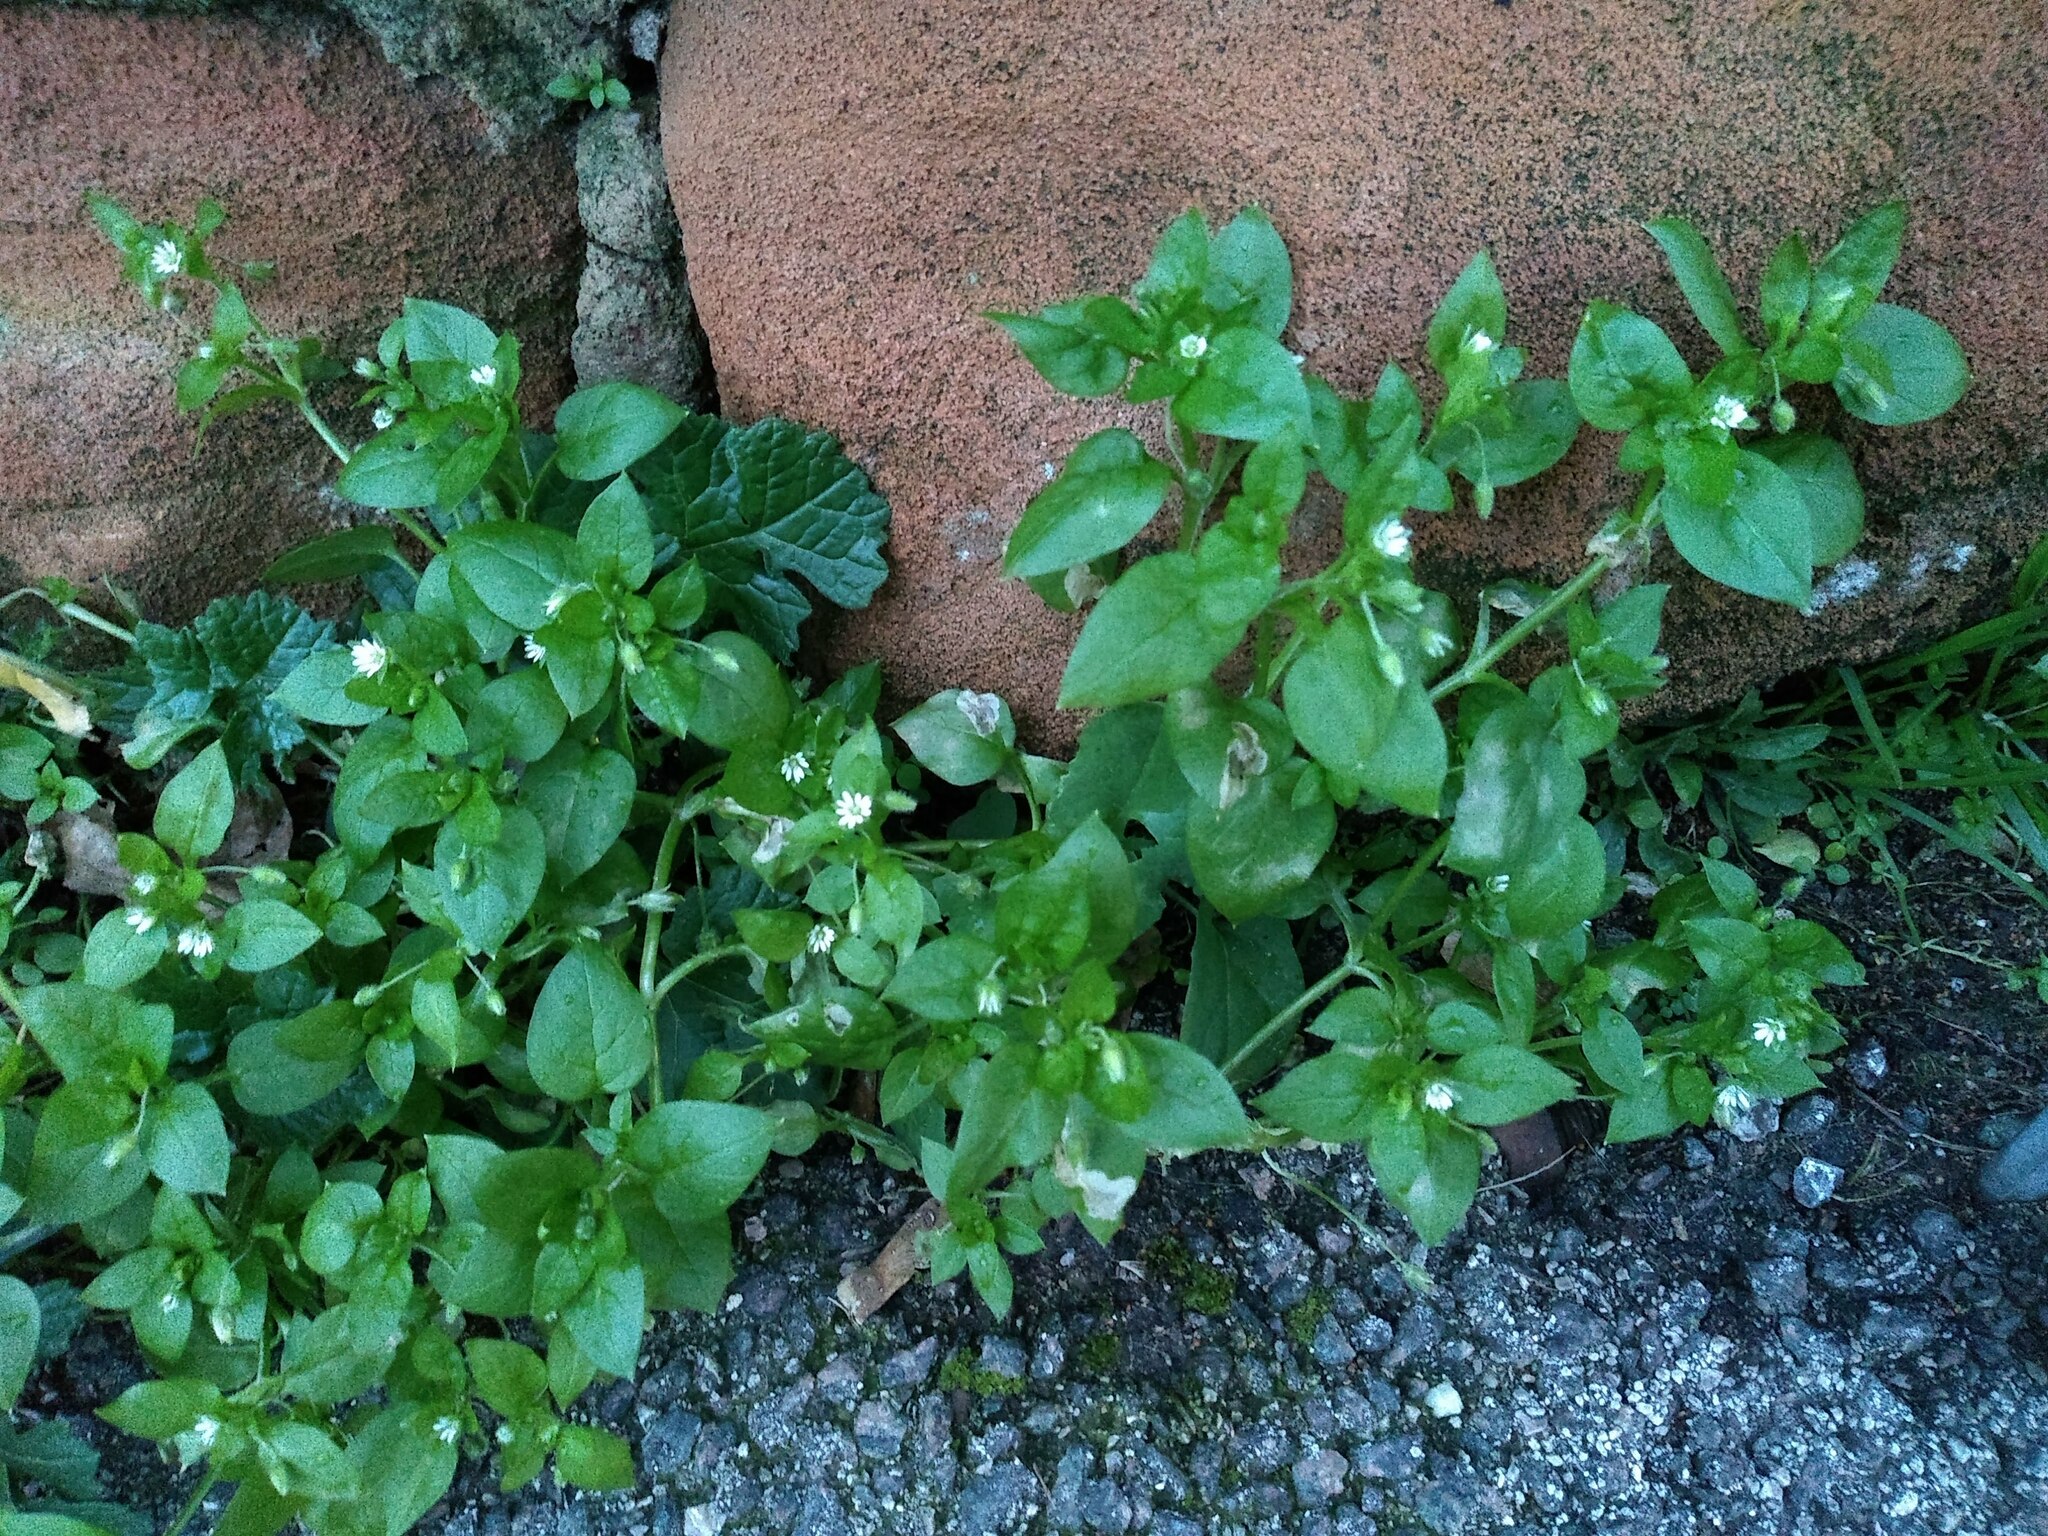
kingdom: Plantae
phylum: Tracheophyta
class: Magnoliopsida
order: Caryophyllales
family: Caryophyllaceae
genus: Stellaria
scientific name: Stellaria media
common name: Common chickweed
